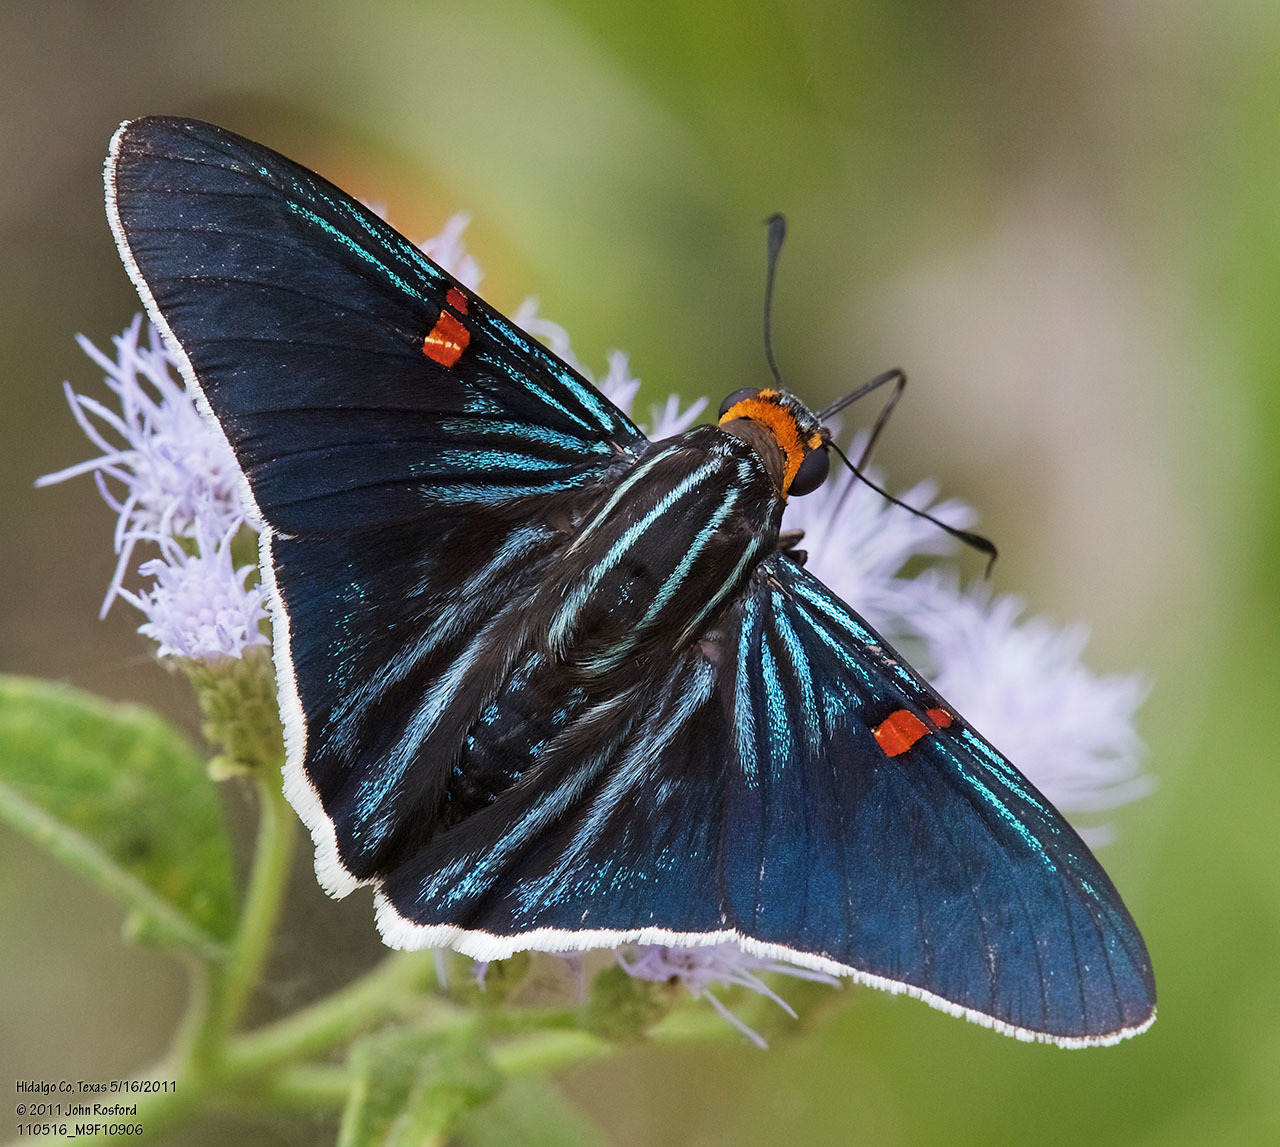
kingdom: Animalia
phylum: Arthropoda
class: Insecta
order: Lepidoptera
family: Hesperiidae
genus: Phocides
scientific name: Phocides lilea
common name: Guava skipper
